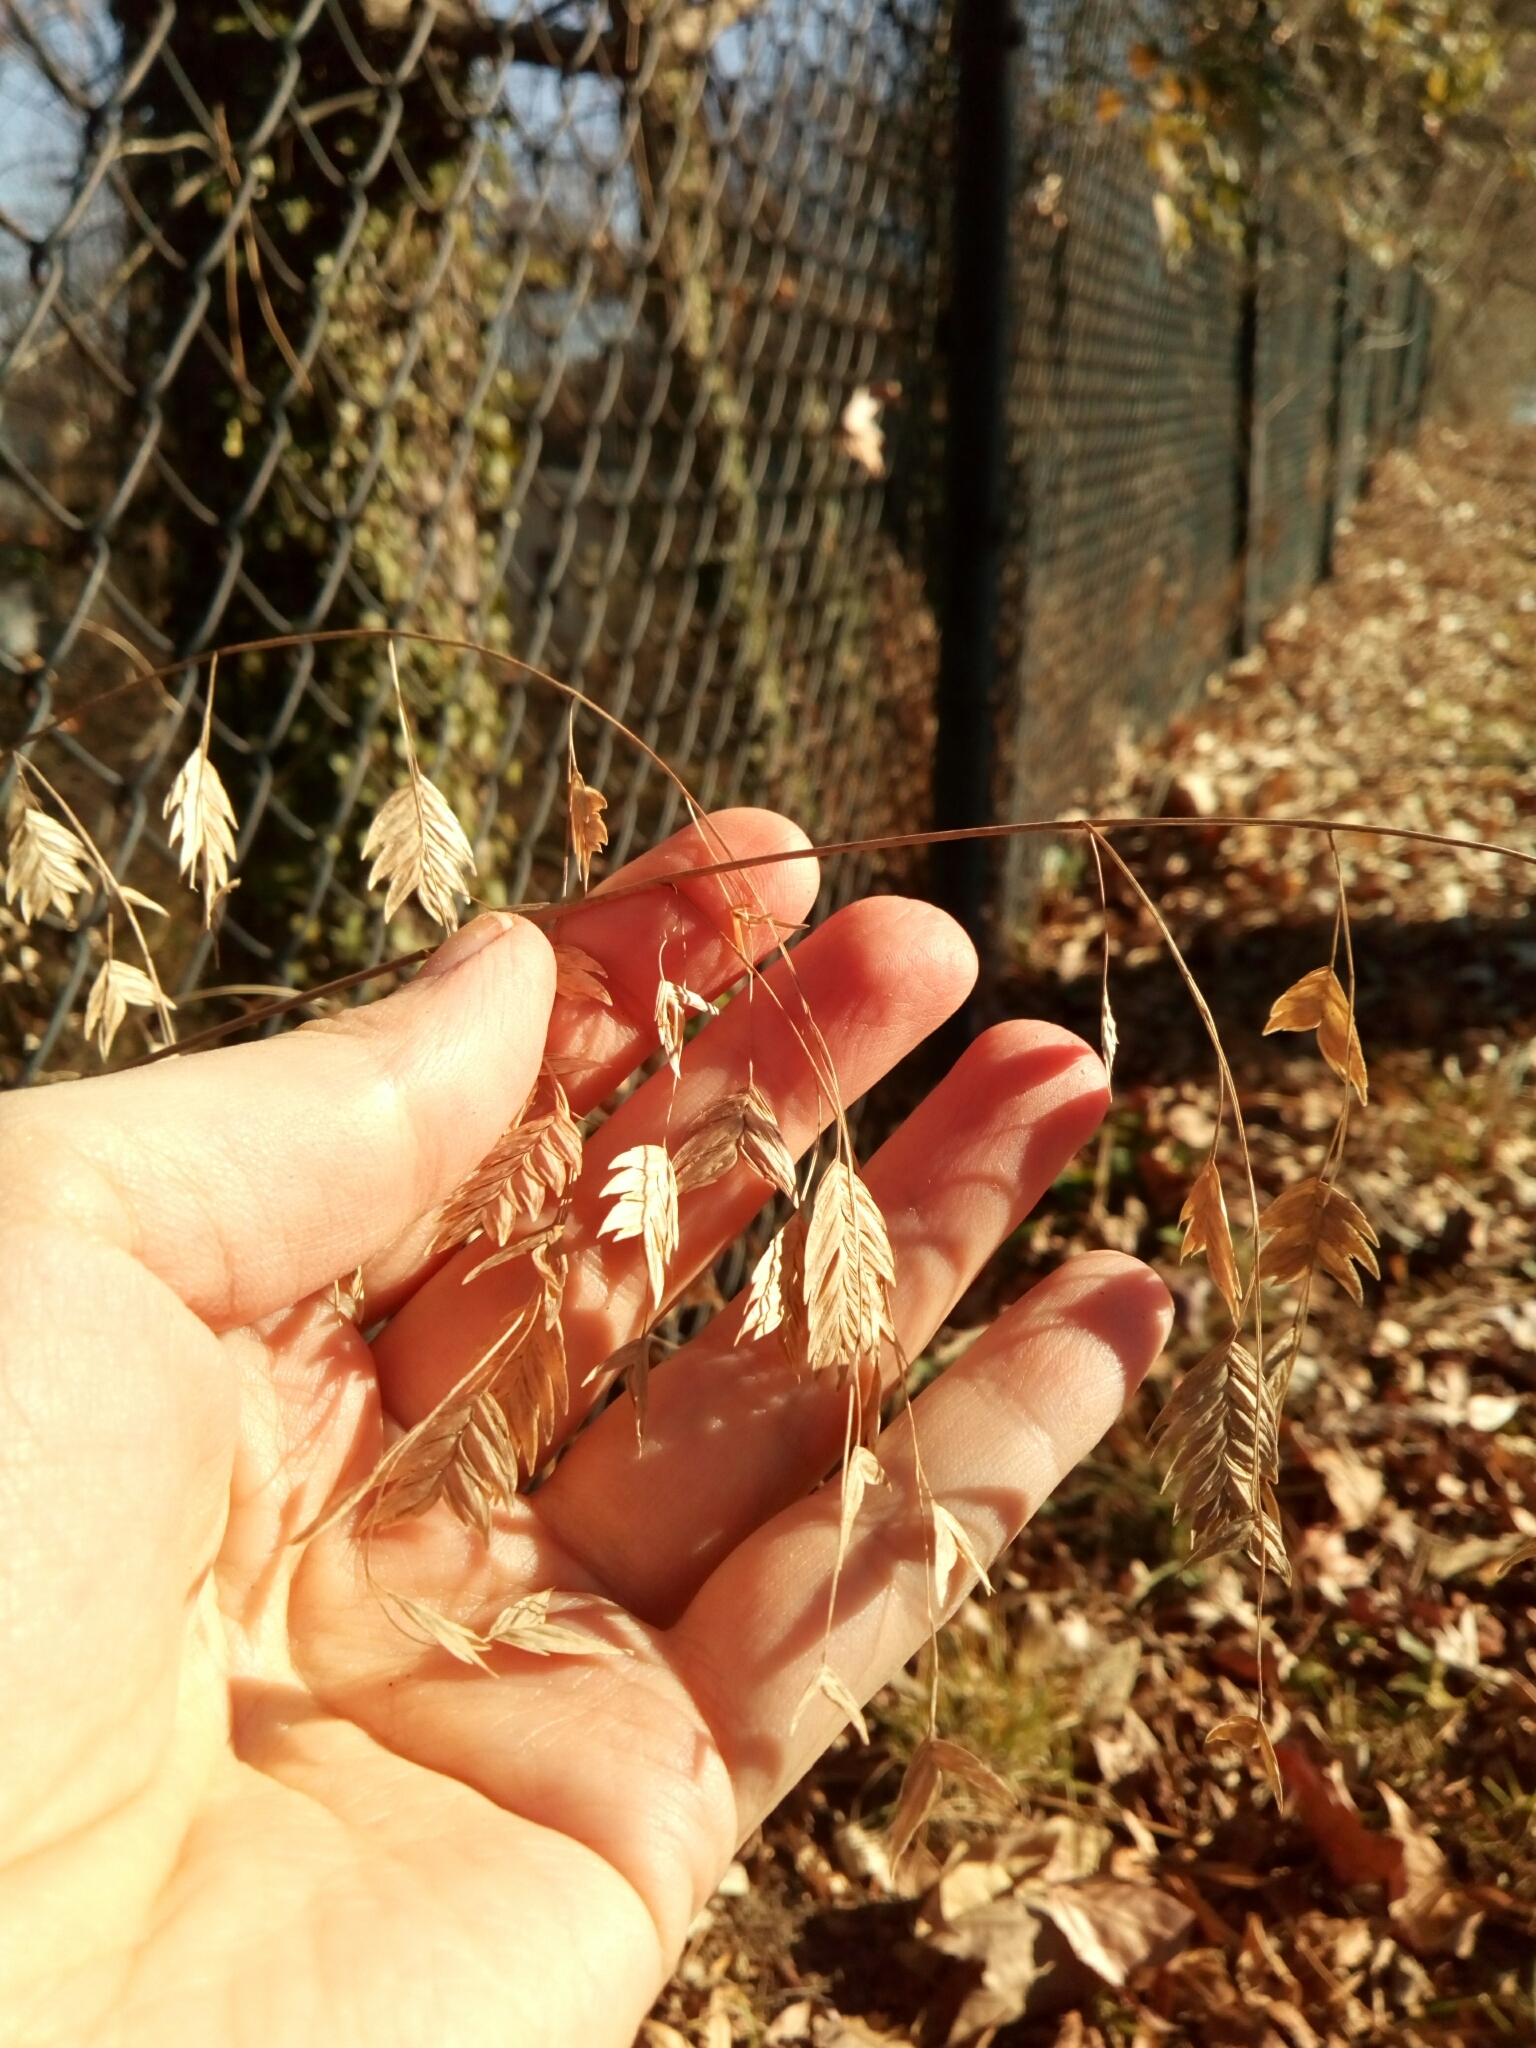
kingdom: Plantae
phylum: Tracheophyta
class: Liliopsida
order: Poales
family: Poaceae
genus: Chasmanthium
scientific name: Chasmanthium latifolium
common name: Broad-leaved chasmanthium
